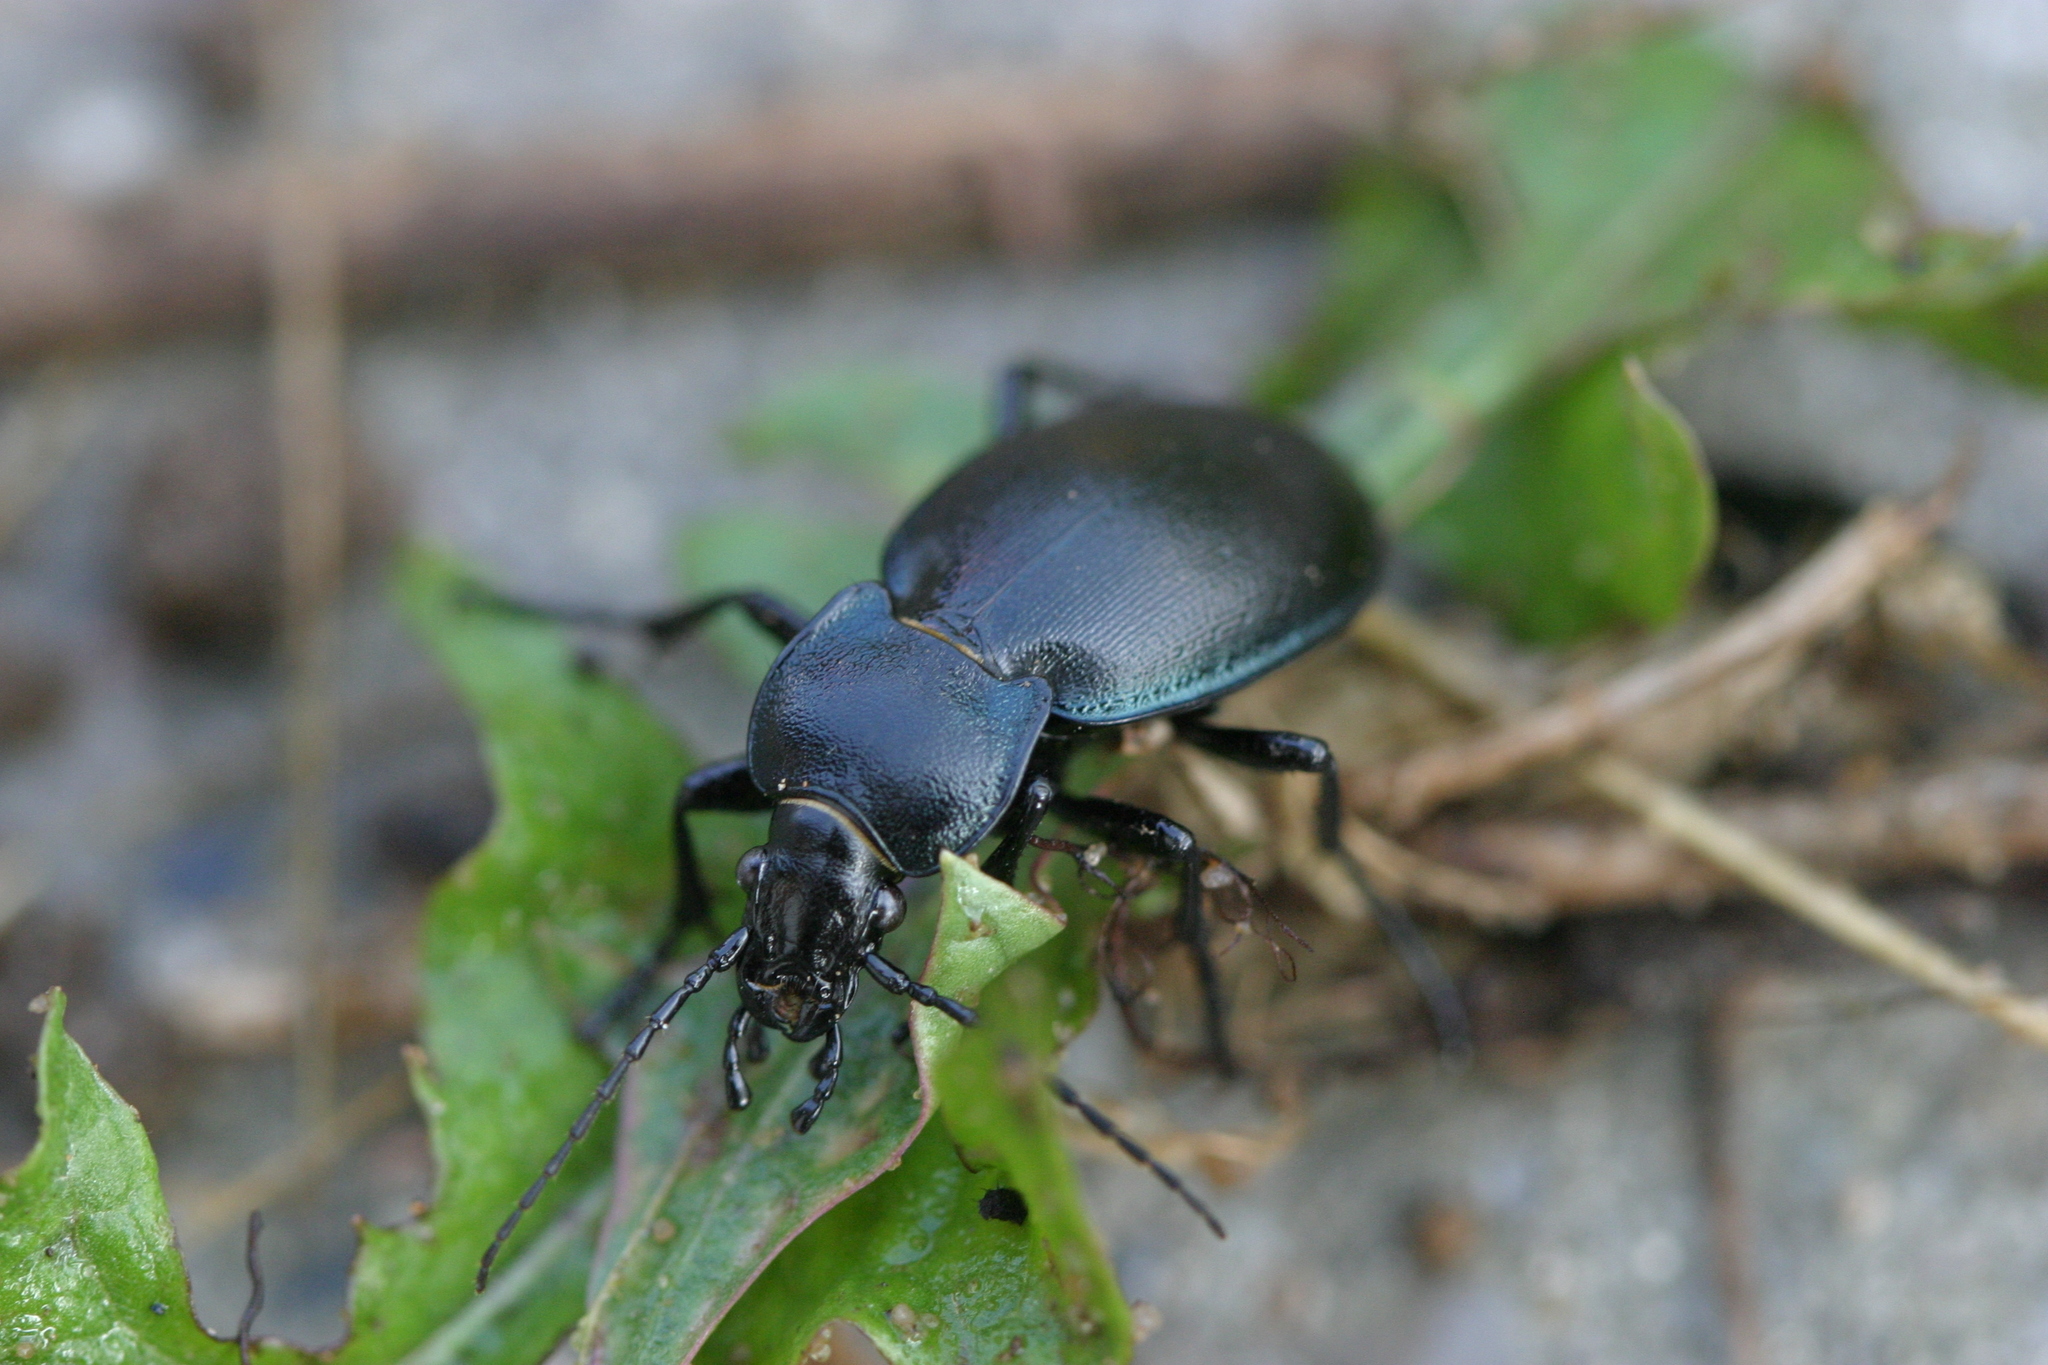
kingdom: Animalia
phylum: Arthropoda
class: Insecta
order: Coleoptera
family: Carabidae
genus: Carabus
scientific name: Carabus convexus
